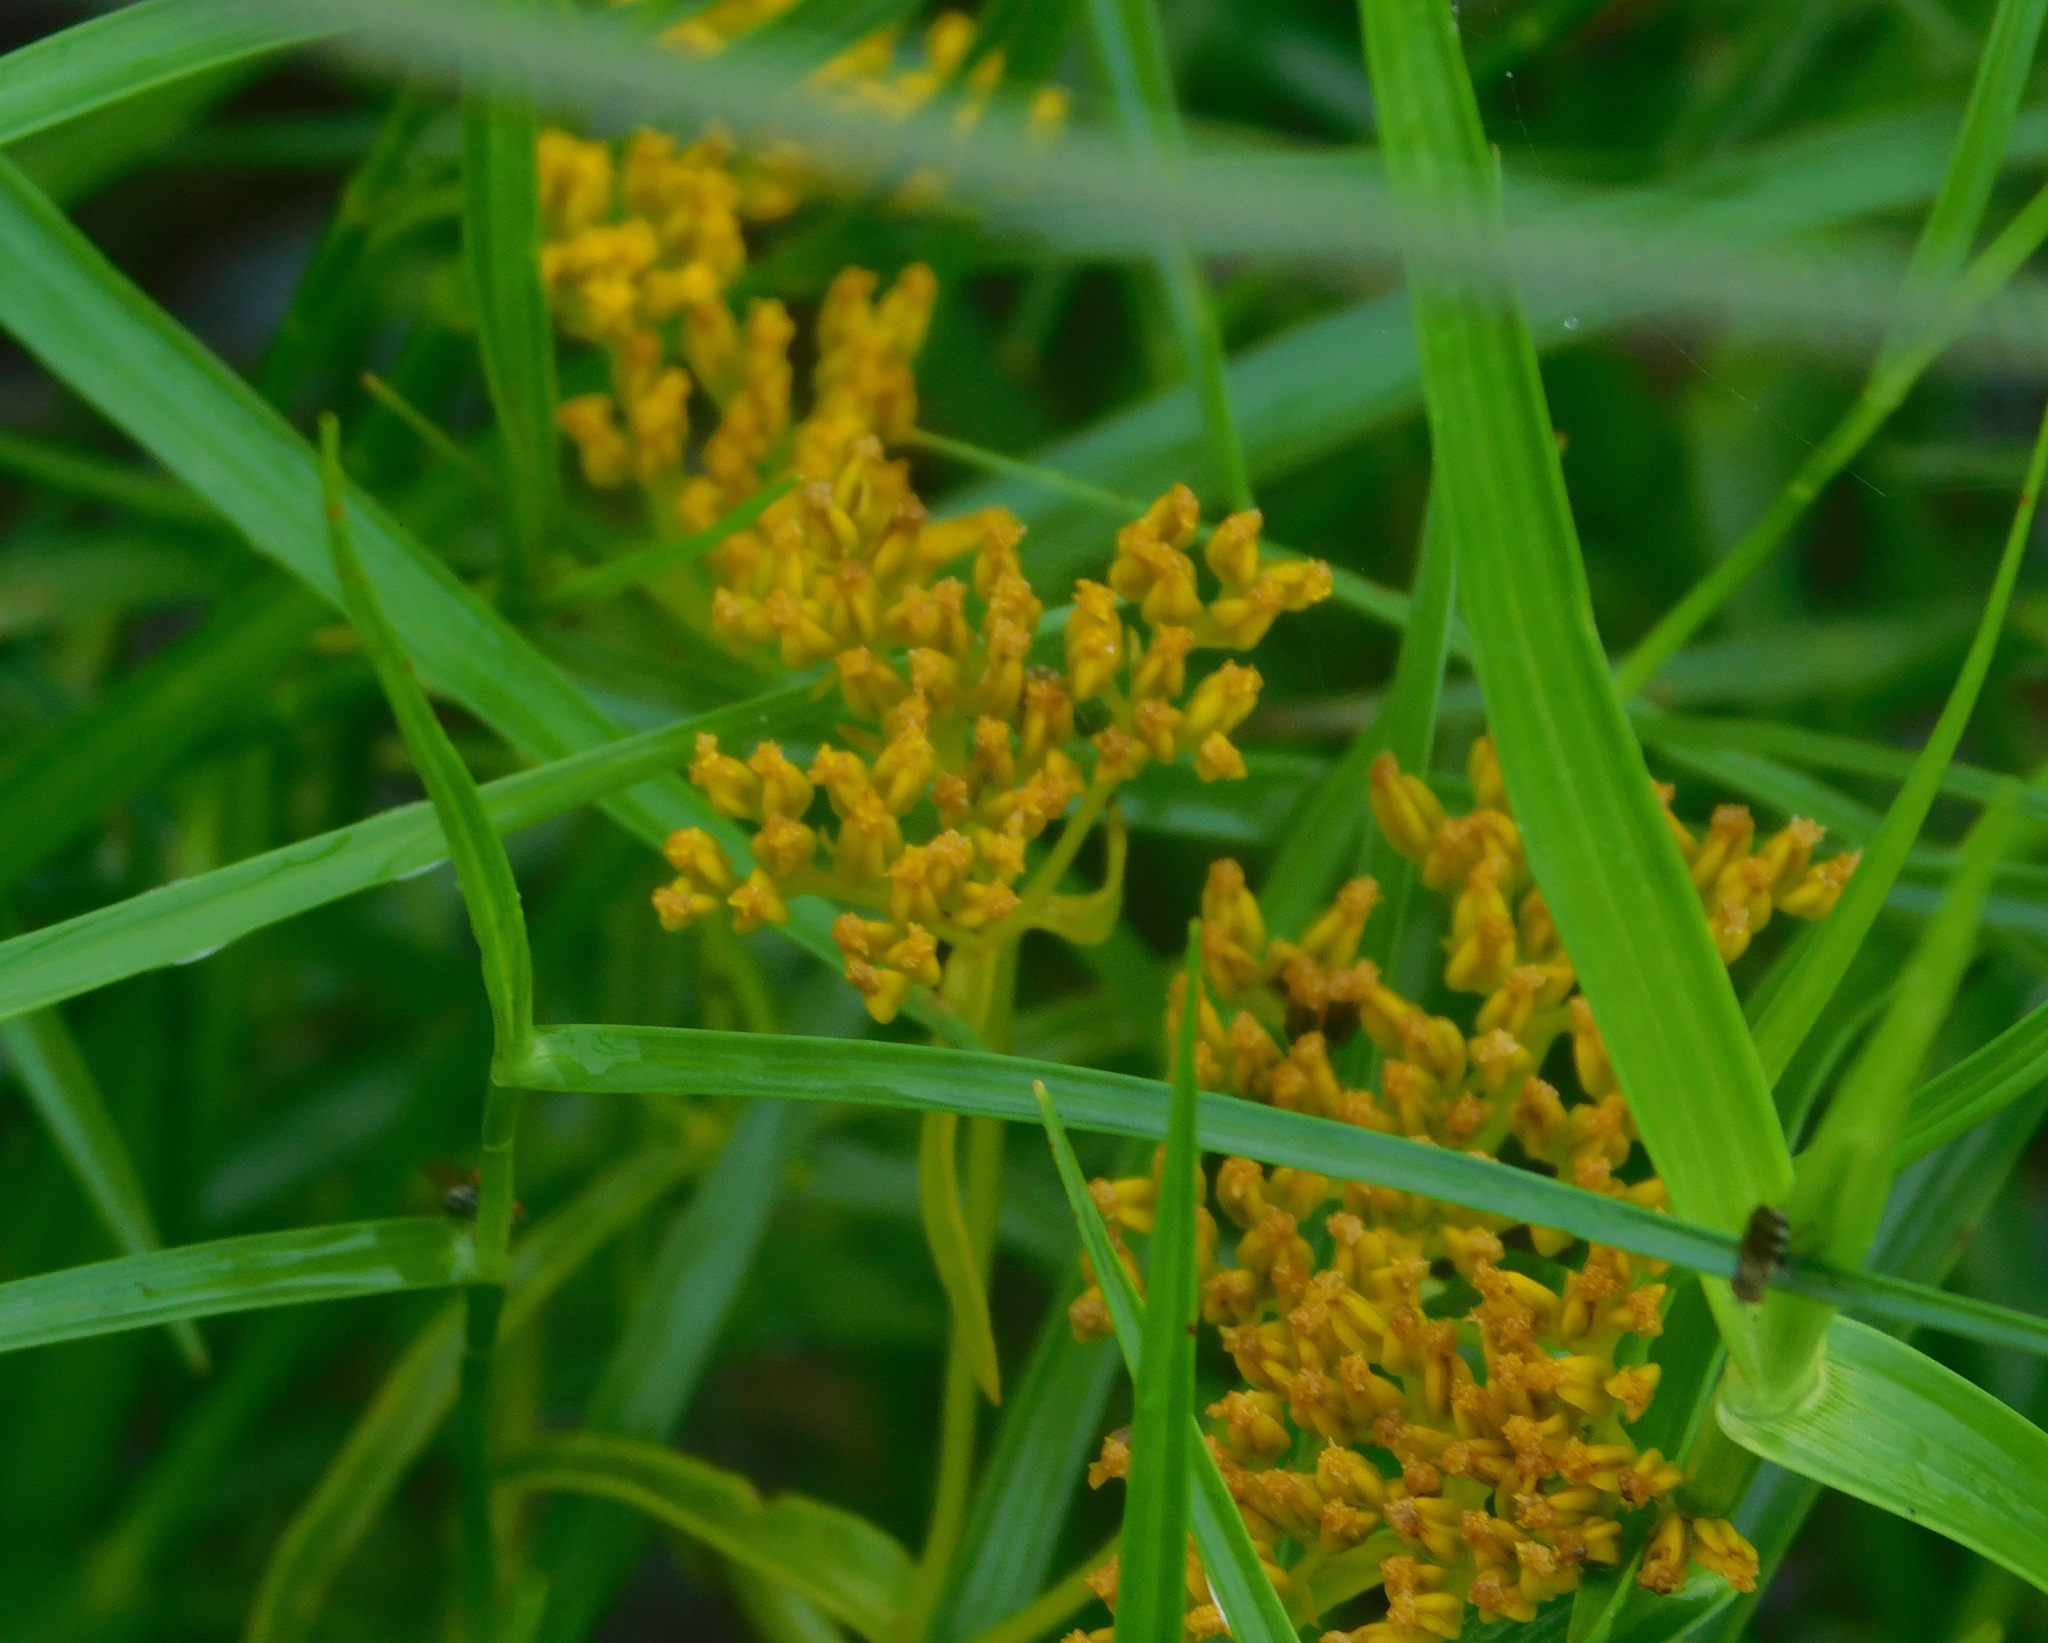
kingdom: Plantae
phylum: Tracheophyta
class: Magnoliopsida
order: Asterales
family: Asteraceae
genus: Flaveria
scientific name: Flaveria linearis
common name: Yellowtop
